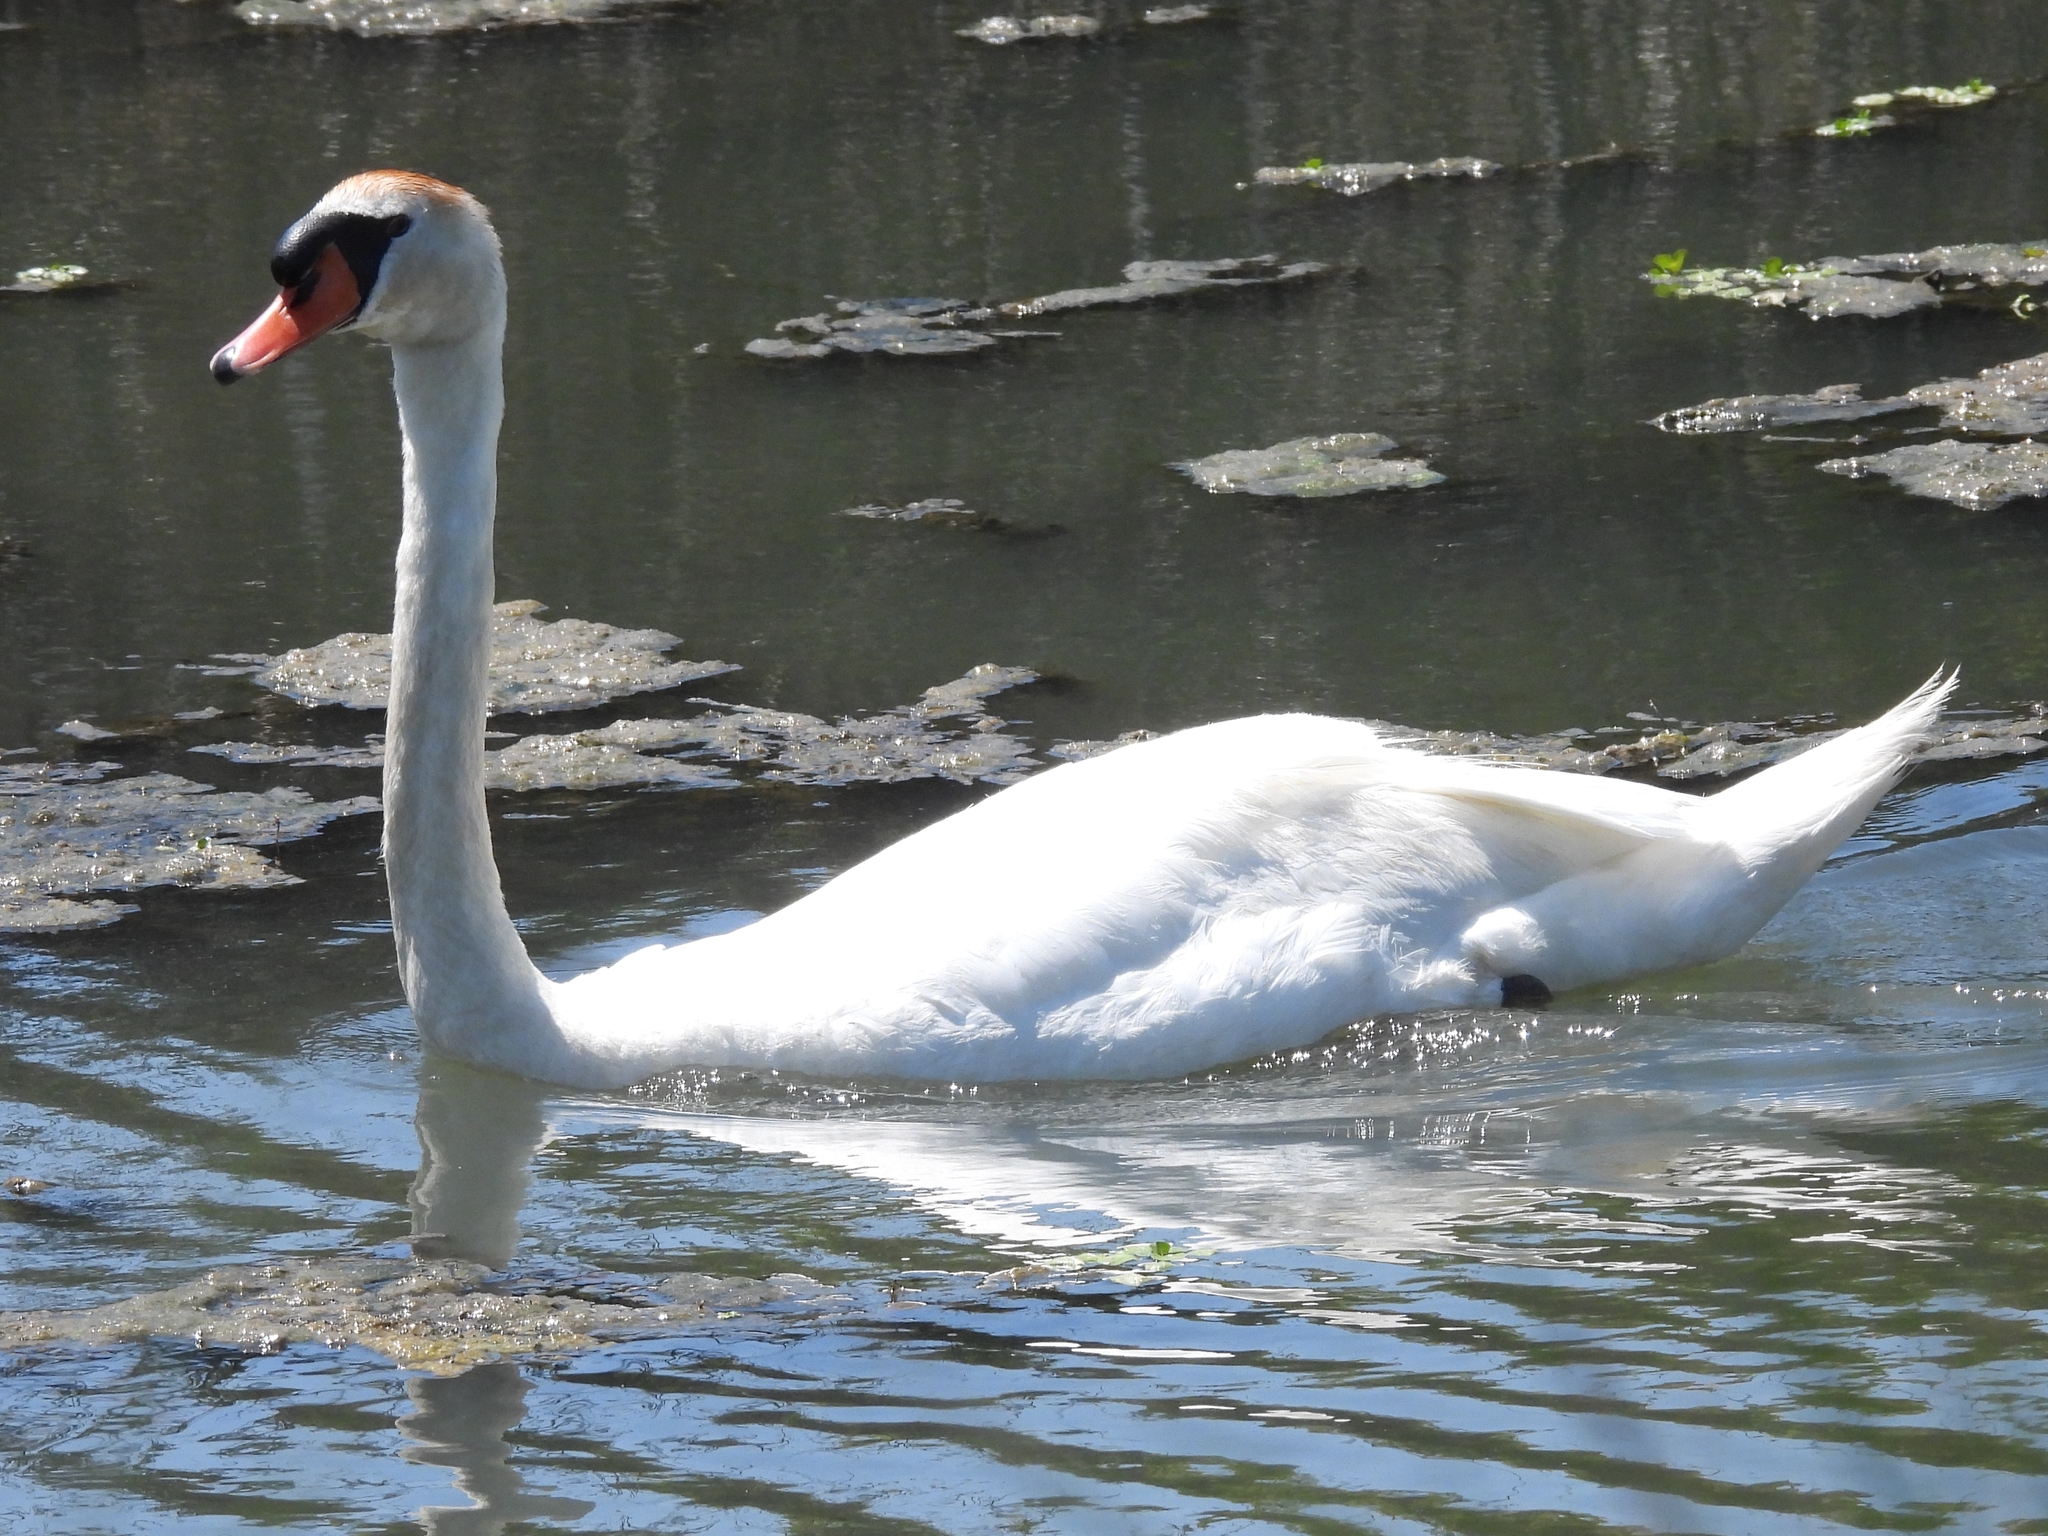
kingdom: Animalia
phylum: Chordata
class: Aves
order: Anseriformes
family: Anatidae
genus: Cygnus
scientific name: Cygnus olor
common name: Mute swan
